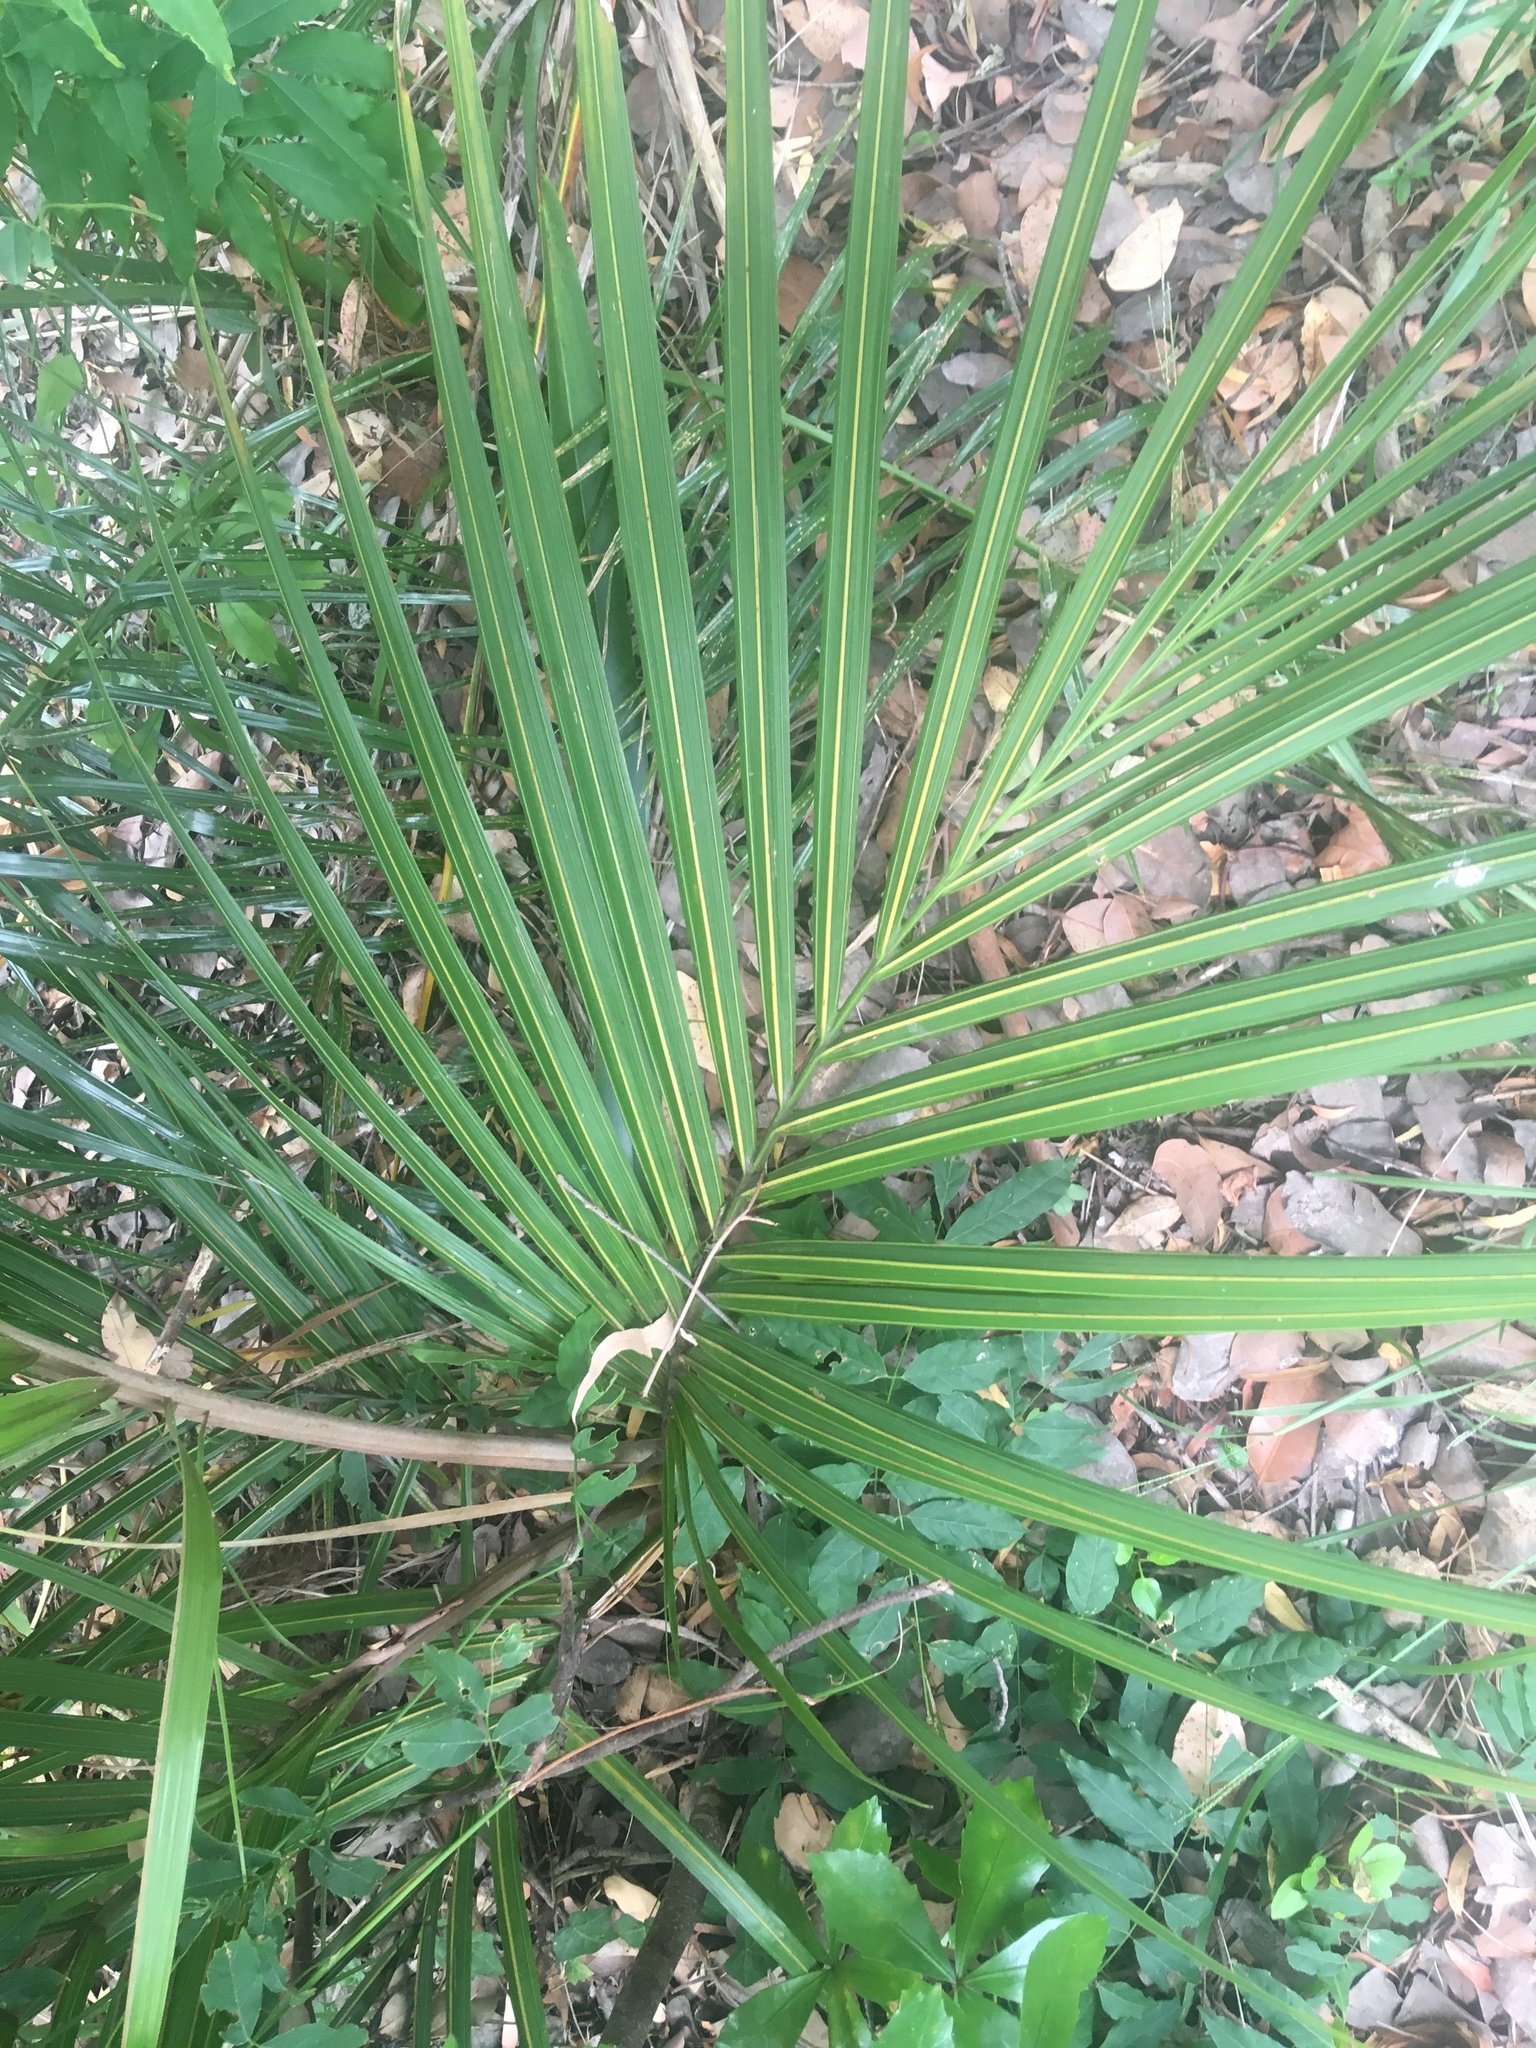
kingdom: Plantae
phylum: Tracheophyta
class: Liliopsida
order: Arecales
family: Arecaceae
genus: Rhopalostylis
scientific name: Rhopalostylis sapida
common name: Feather-duster palm
